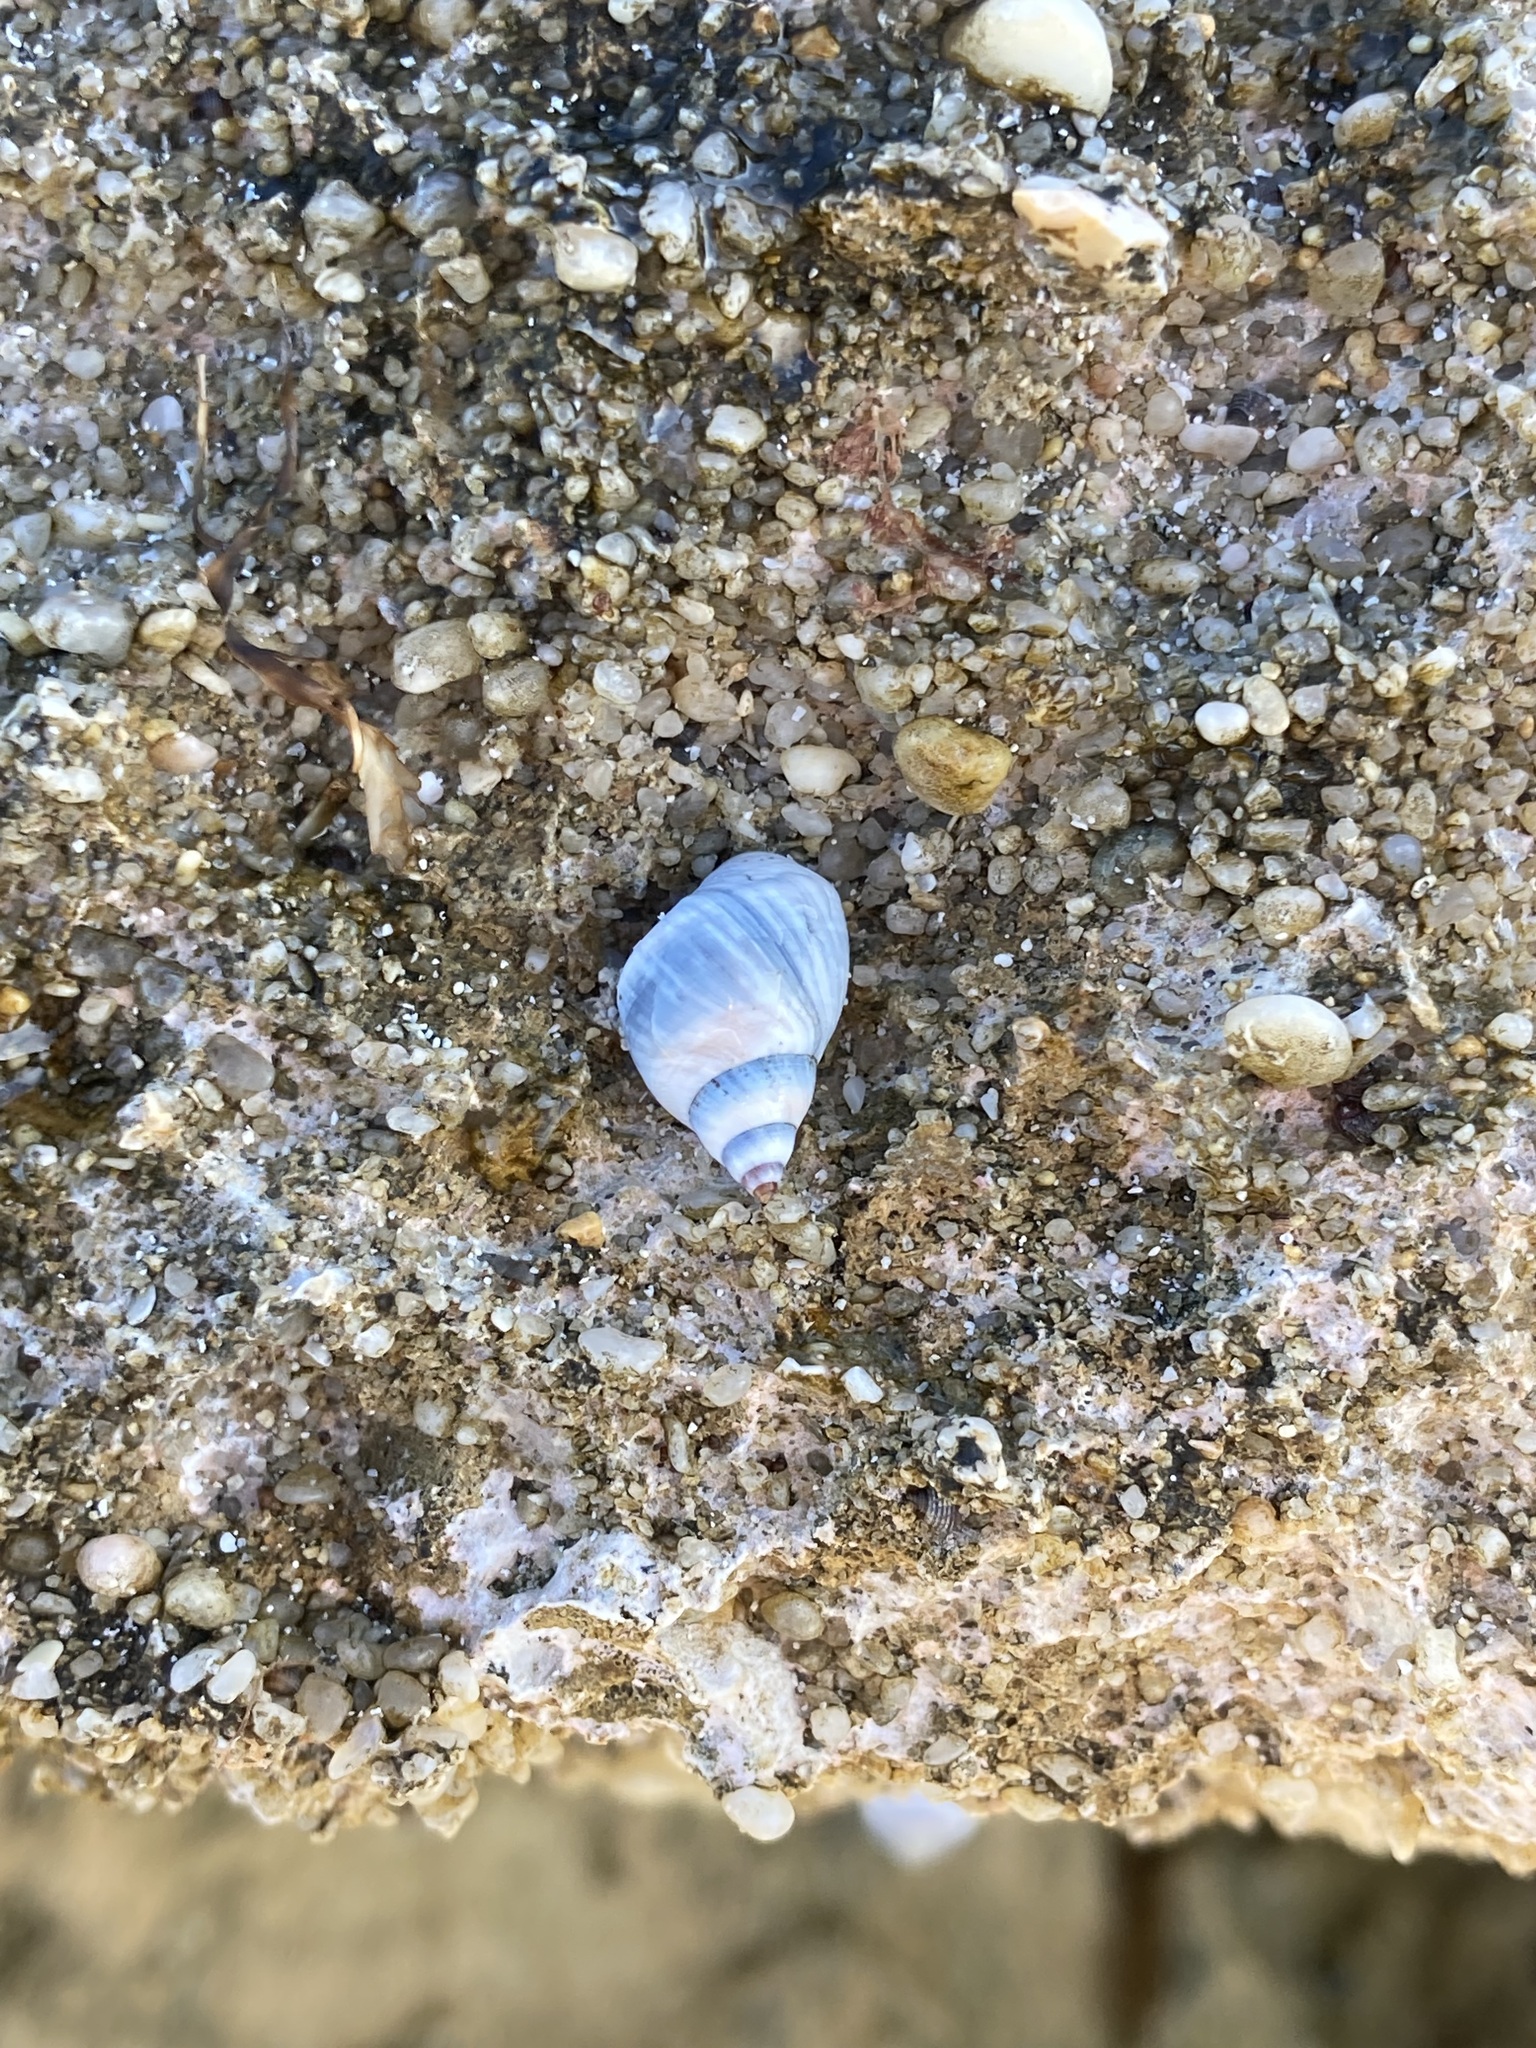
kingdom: Animalia
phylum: Mollusca
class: Gastropoda
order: Littorinimorpha
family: Littorinidae
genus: Austrolittorina
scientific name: Austrolittorina unifasciata
